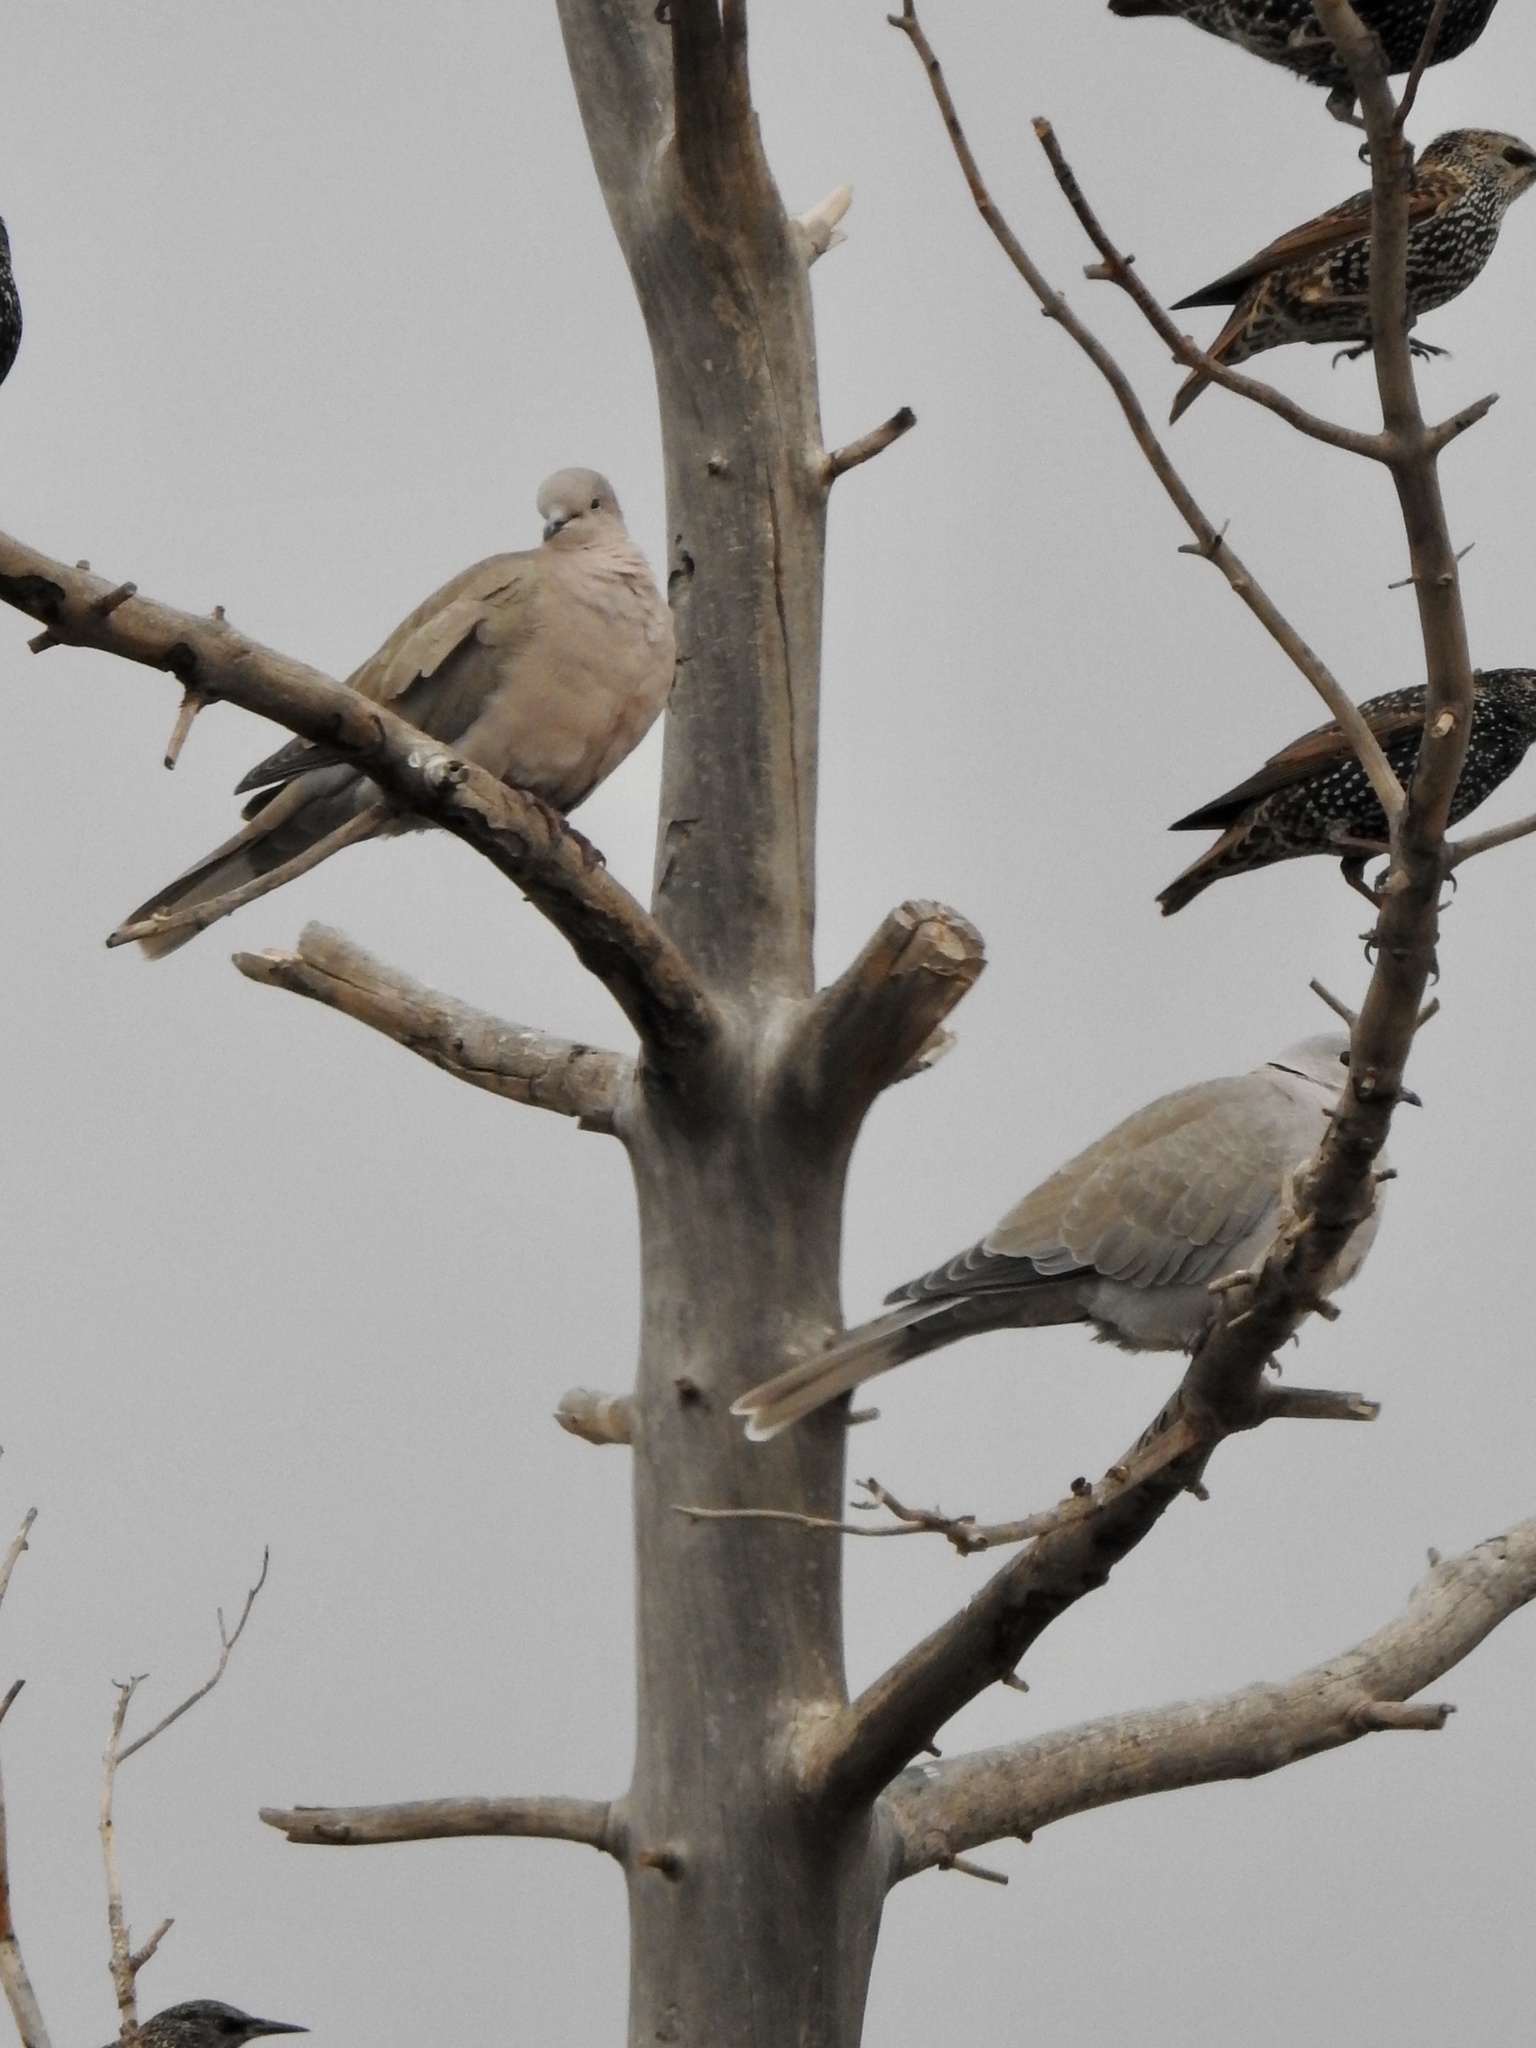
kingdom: Animalia
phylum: Chordata
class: Aves
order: Columbiformes
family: Columbidae
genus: Streptopelia
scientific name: Streptopelia decaocto
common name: Eurasian collared dove
